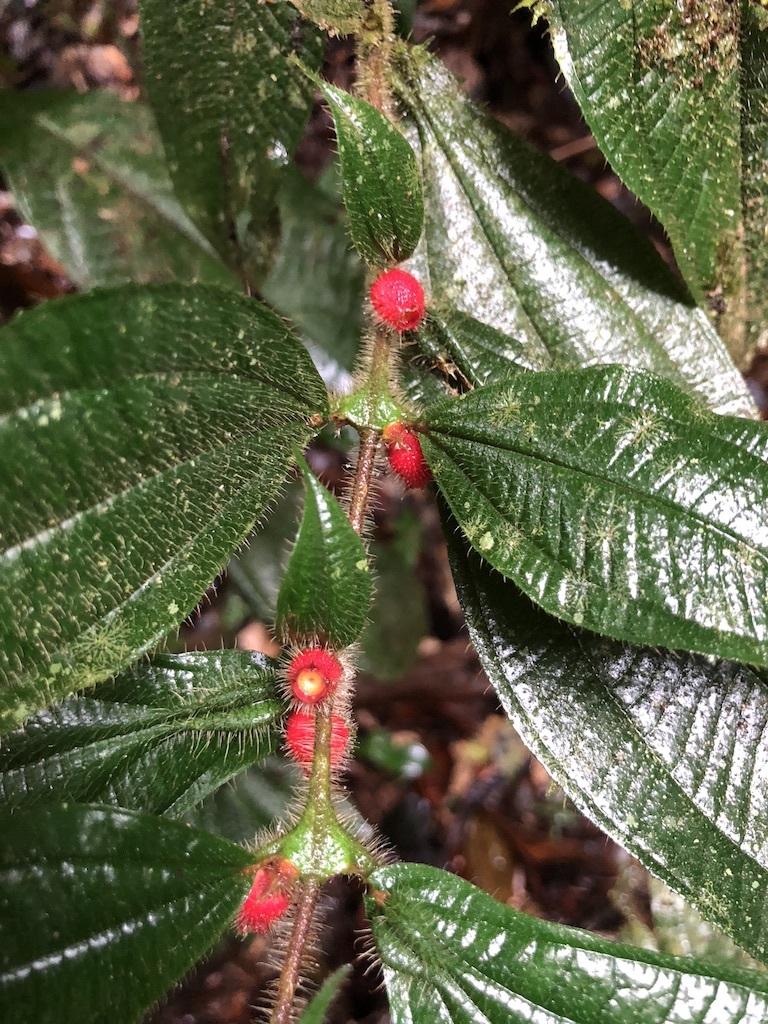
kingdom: Plantae
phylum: Tracheophyta
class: Magnoliopsida
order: Myrtales
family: Melastomataceae
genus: Miconia
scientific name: Miconia mayeta
